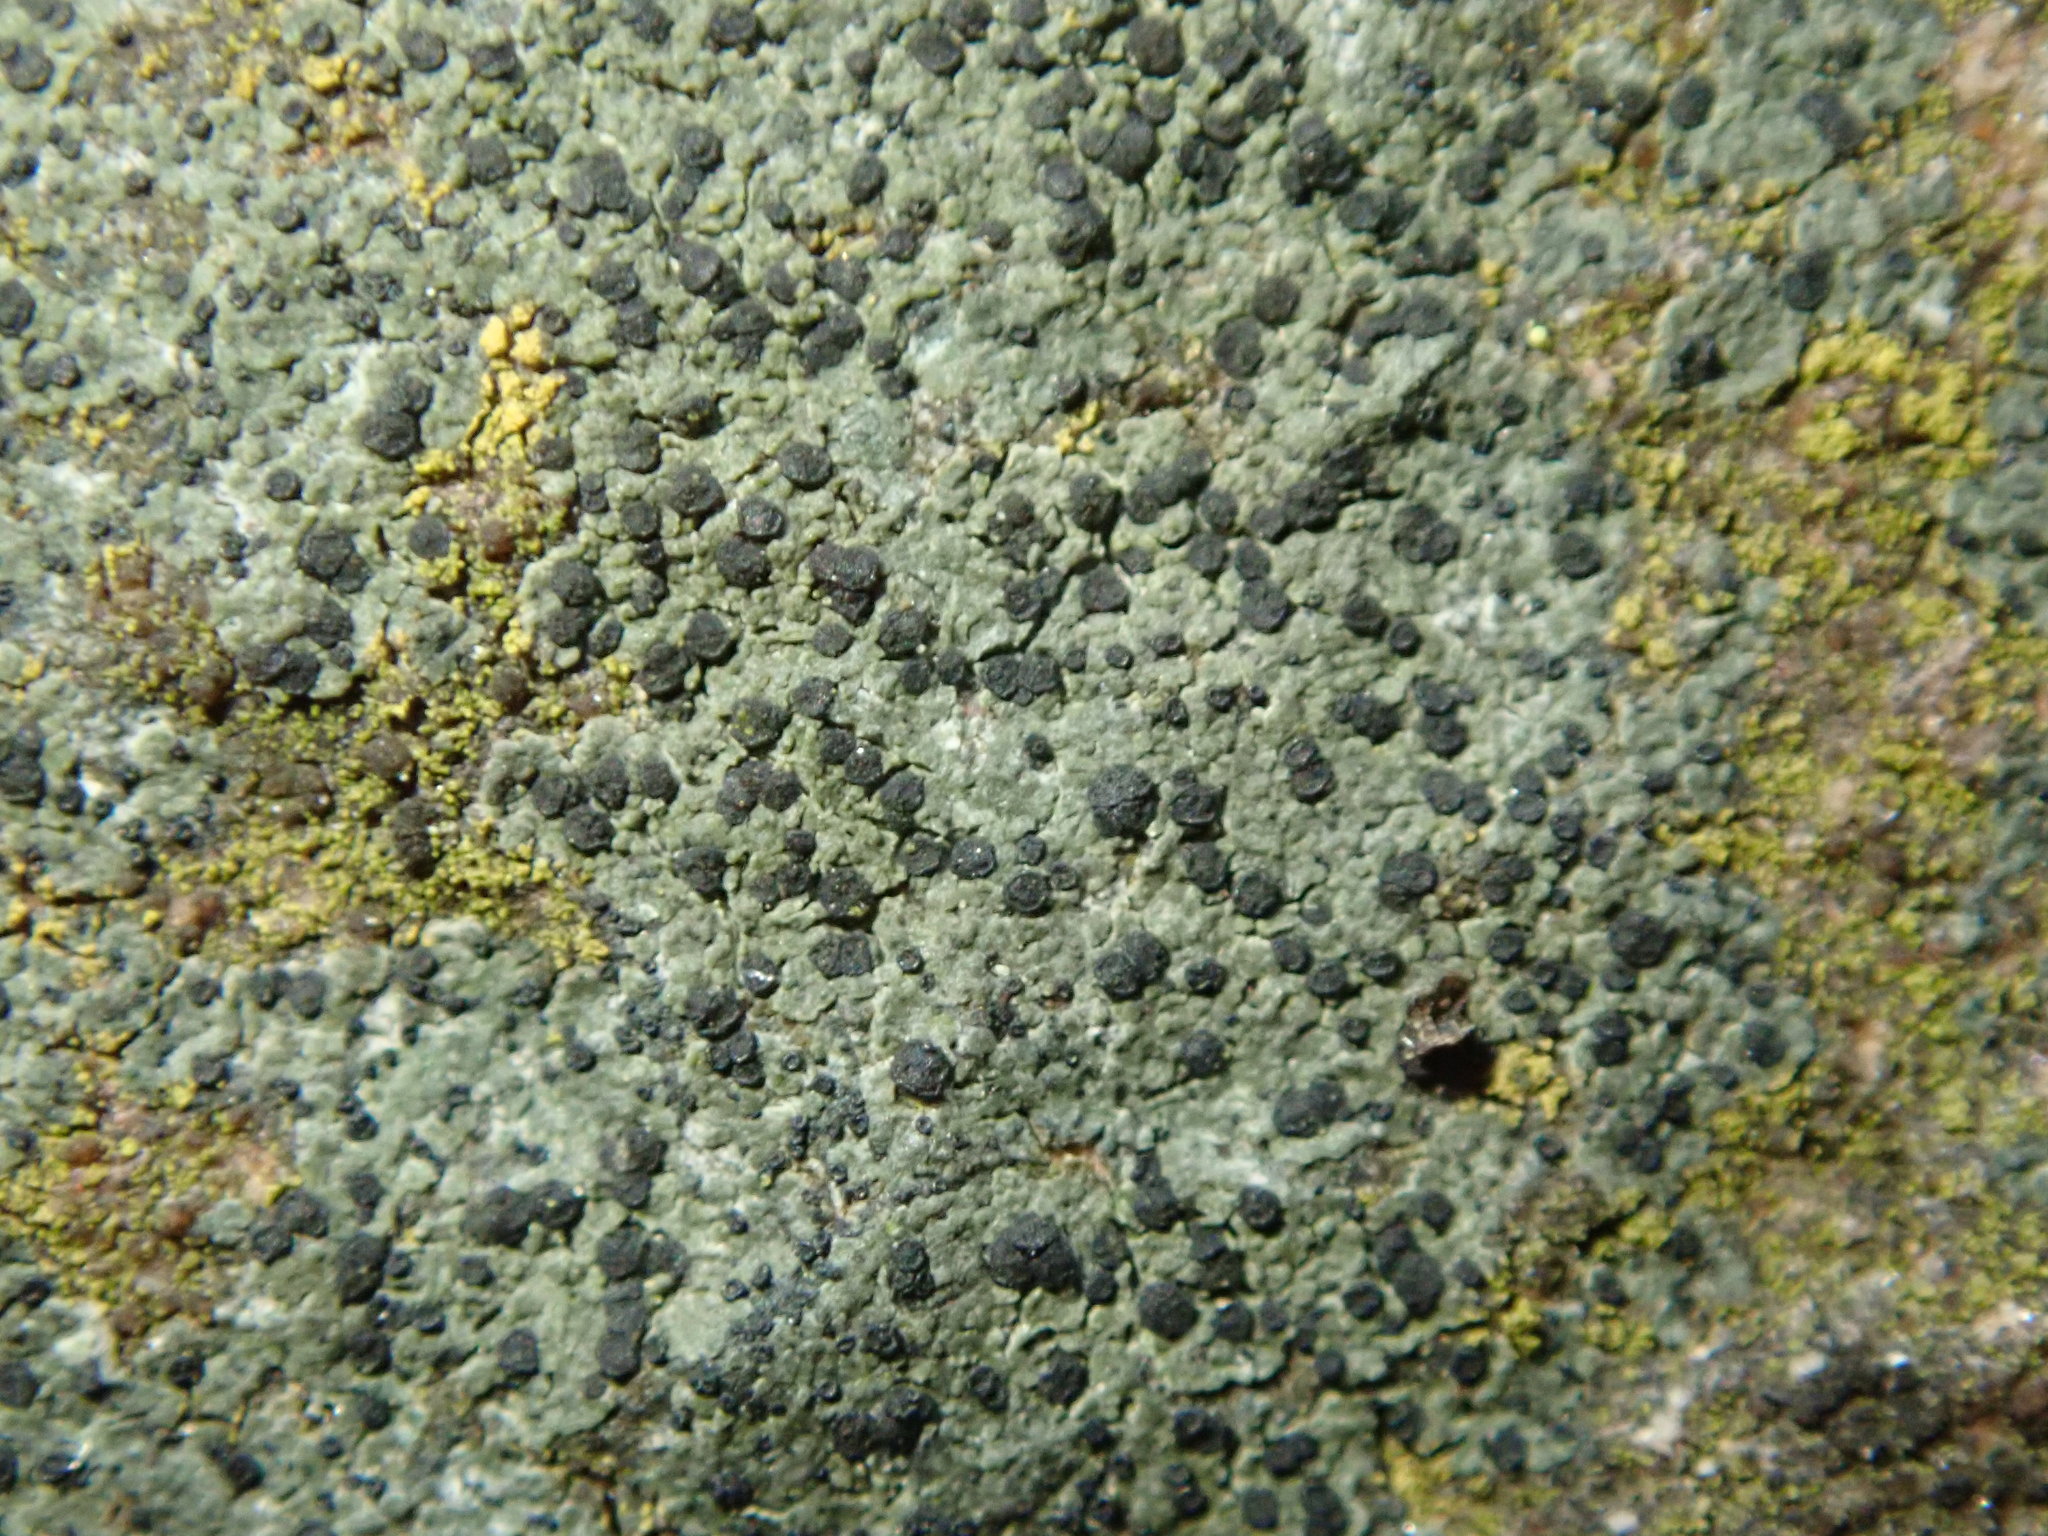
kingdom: Fungi
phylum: Ascomycota
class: Lecanoromycetes
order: Lecanorales
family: Byssolomataceae
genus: Leimonis
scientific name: Leimonis erratica
